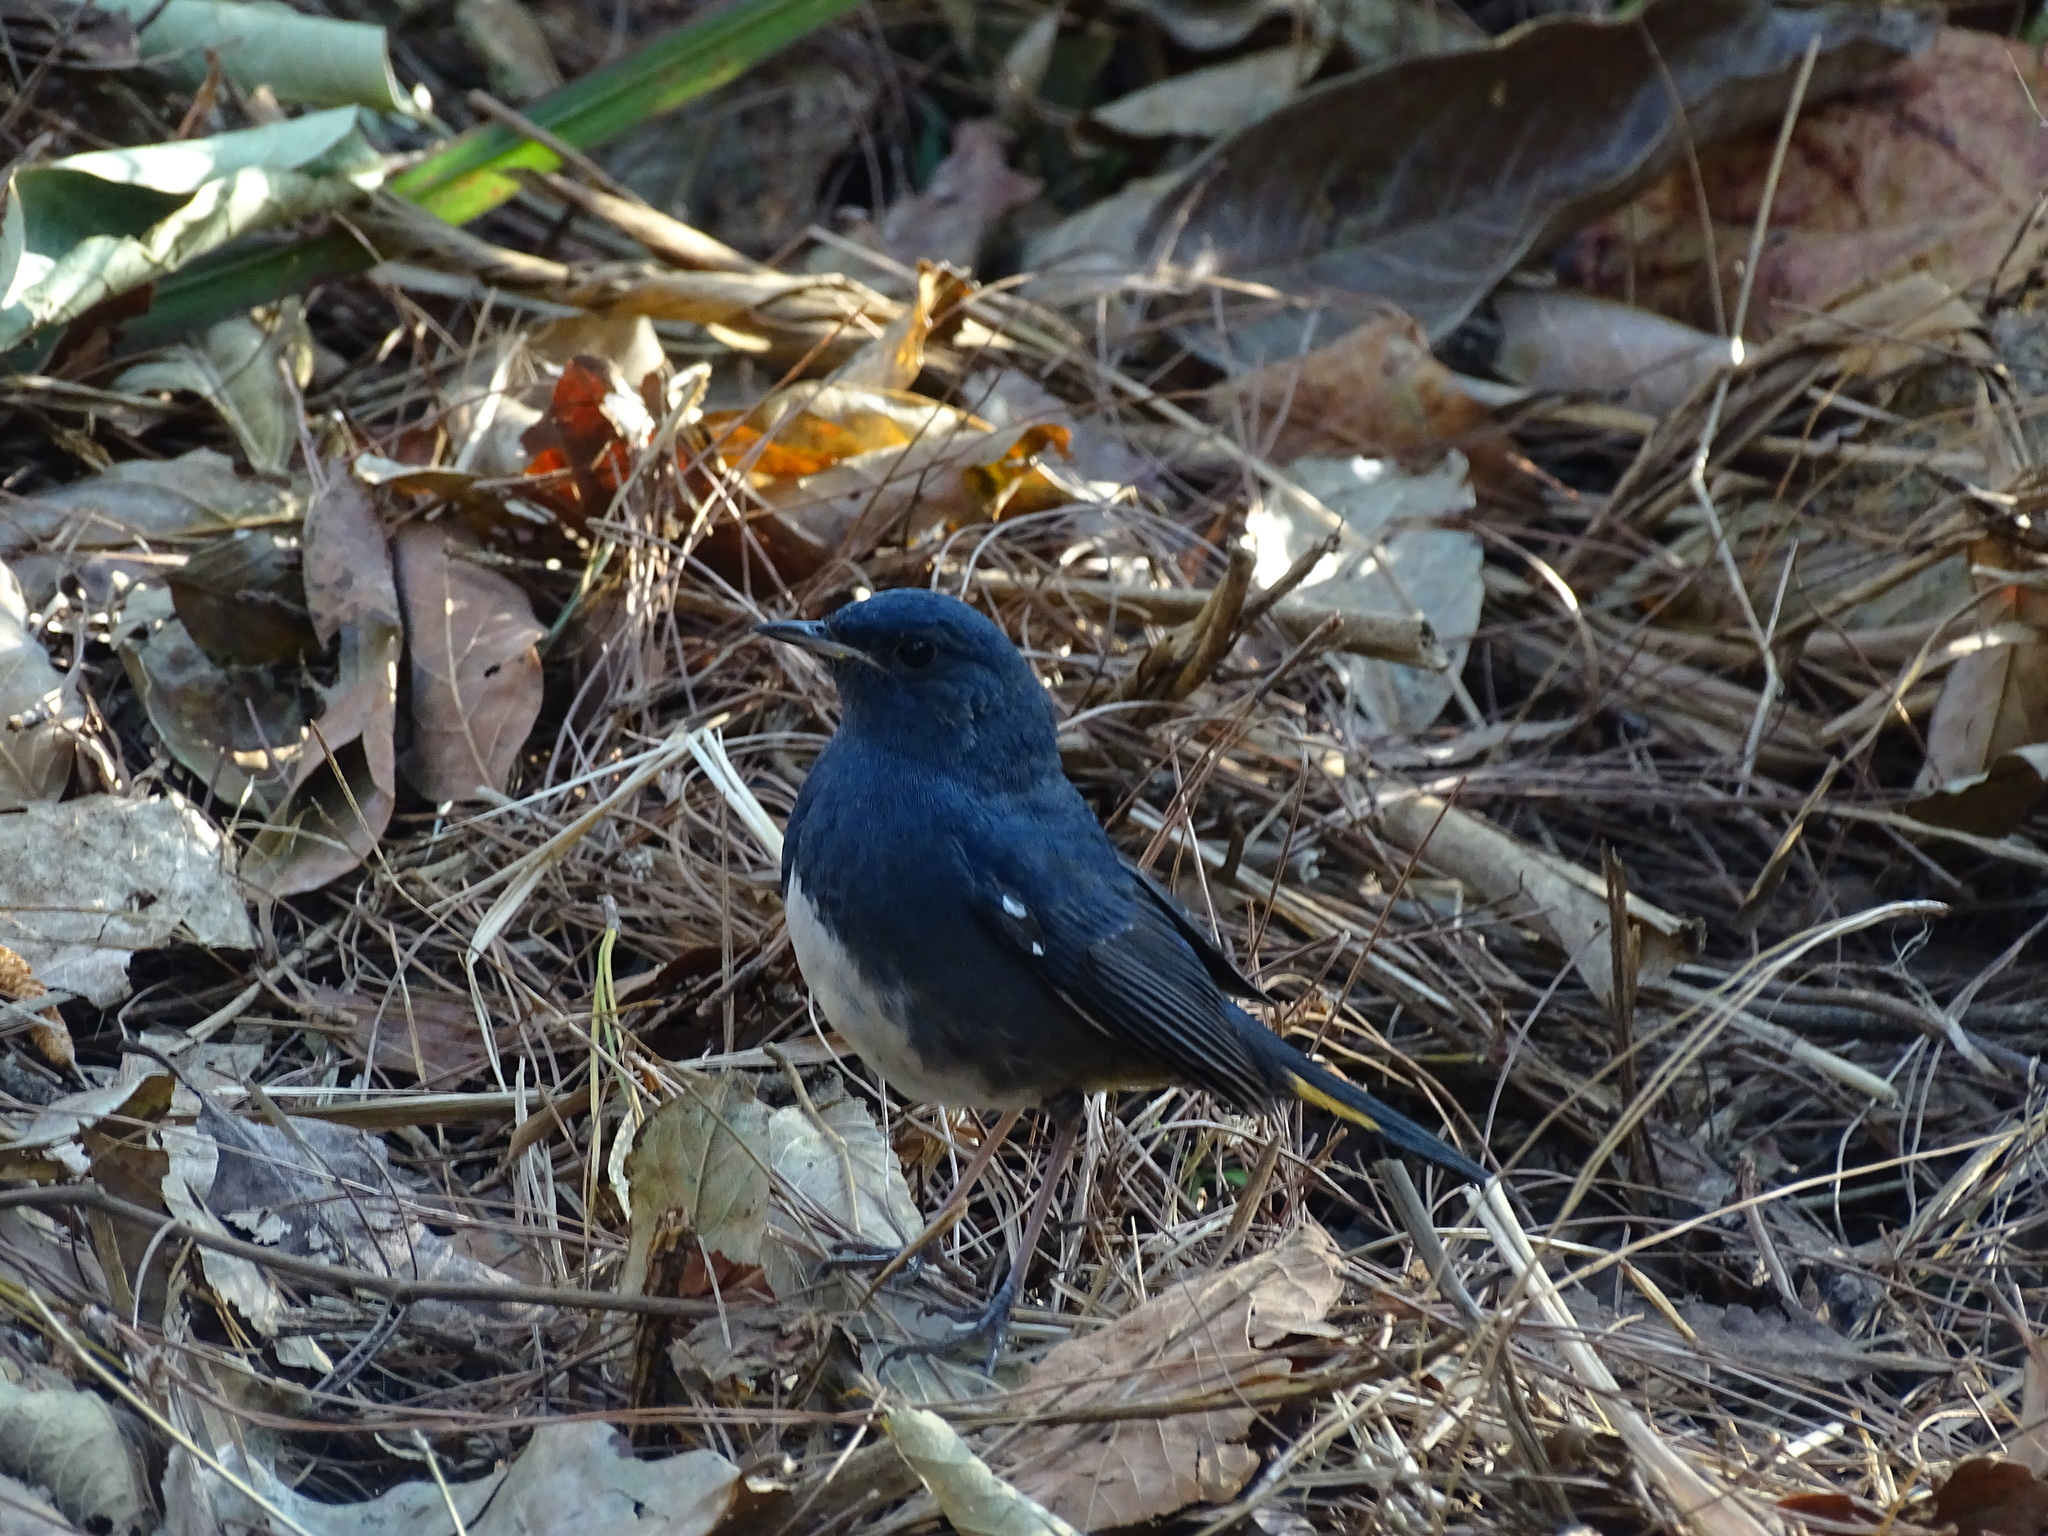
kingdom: Animalia
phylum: Chordata
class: Aves
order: Passeriformes
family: Muscicapidae
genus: Hodgsonius
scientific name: Hodgsonius phoenicuroides
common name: White-bellied redstart
